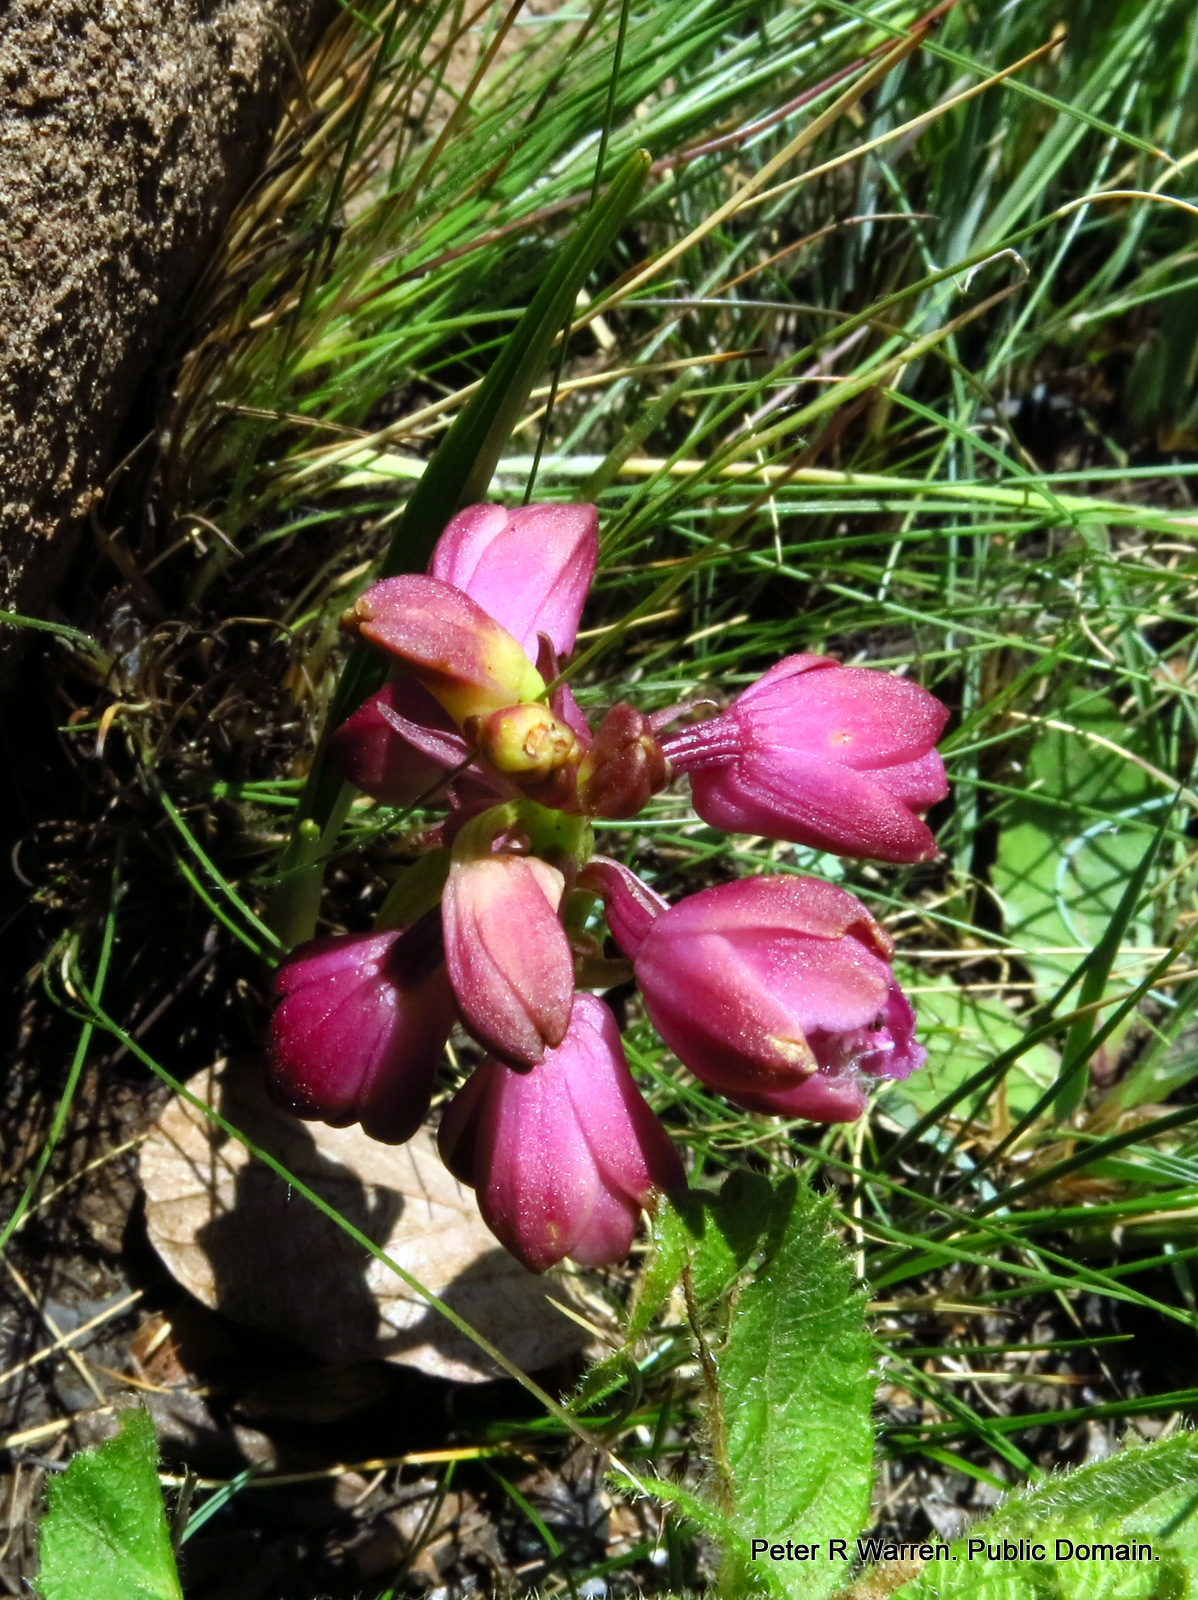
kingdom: Plantae
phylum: Tracheophyta
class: Liliopsida
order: Asparagales
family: Orchidaceae
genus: Eulophia
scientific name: Eulophia huttonii
